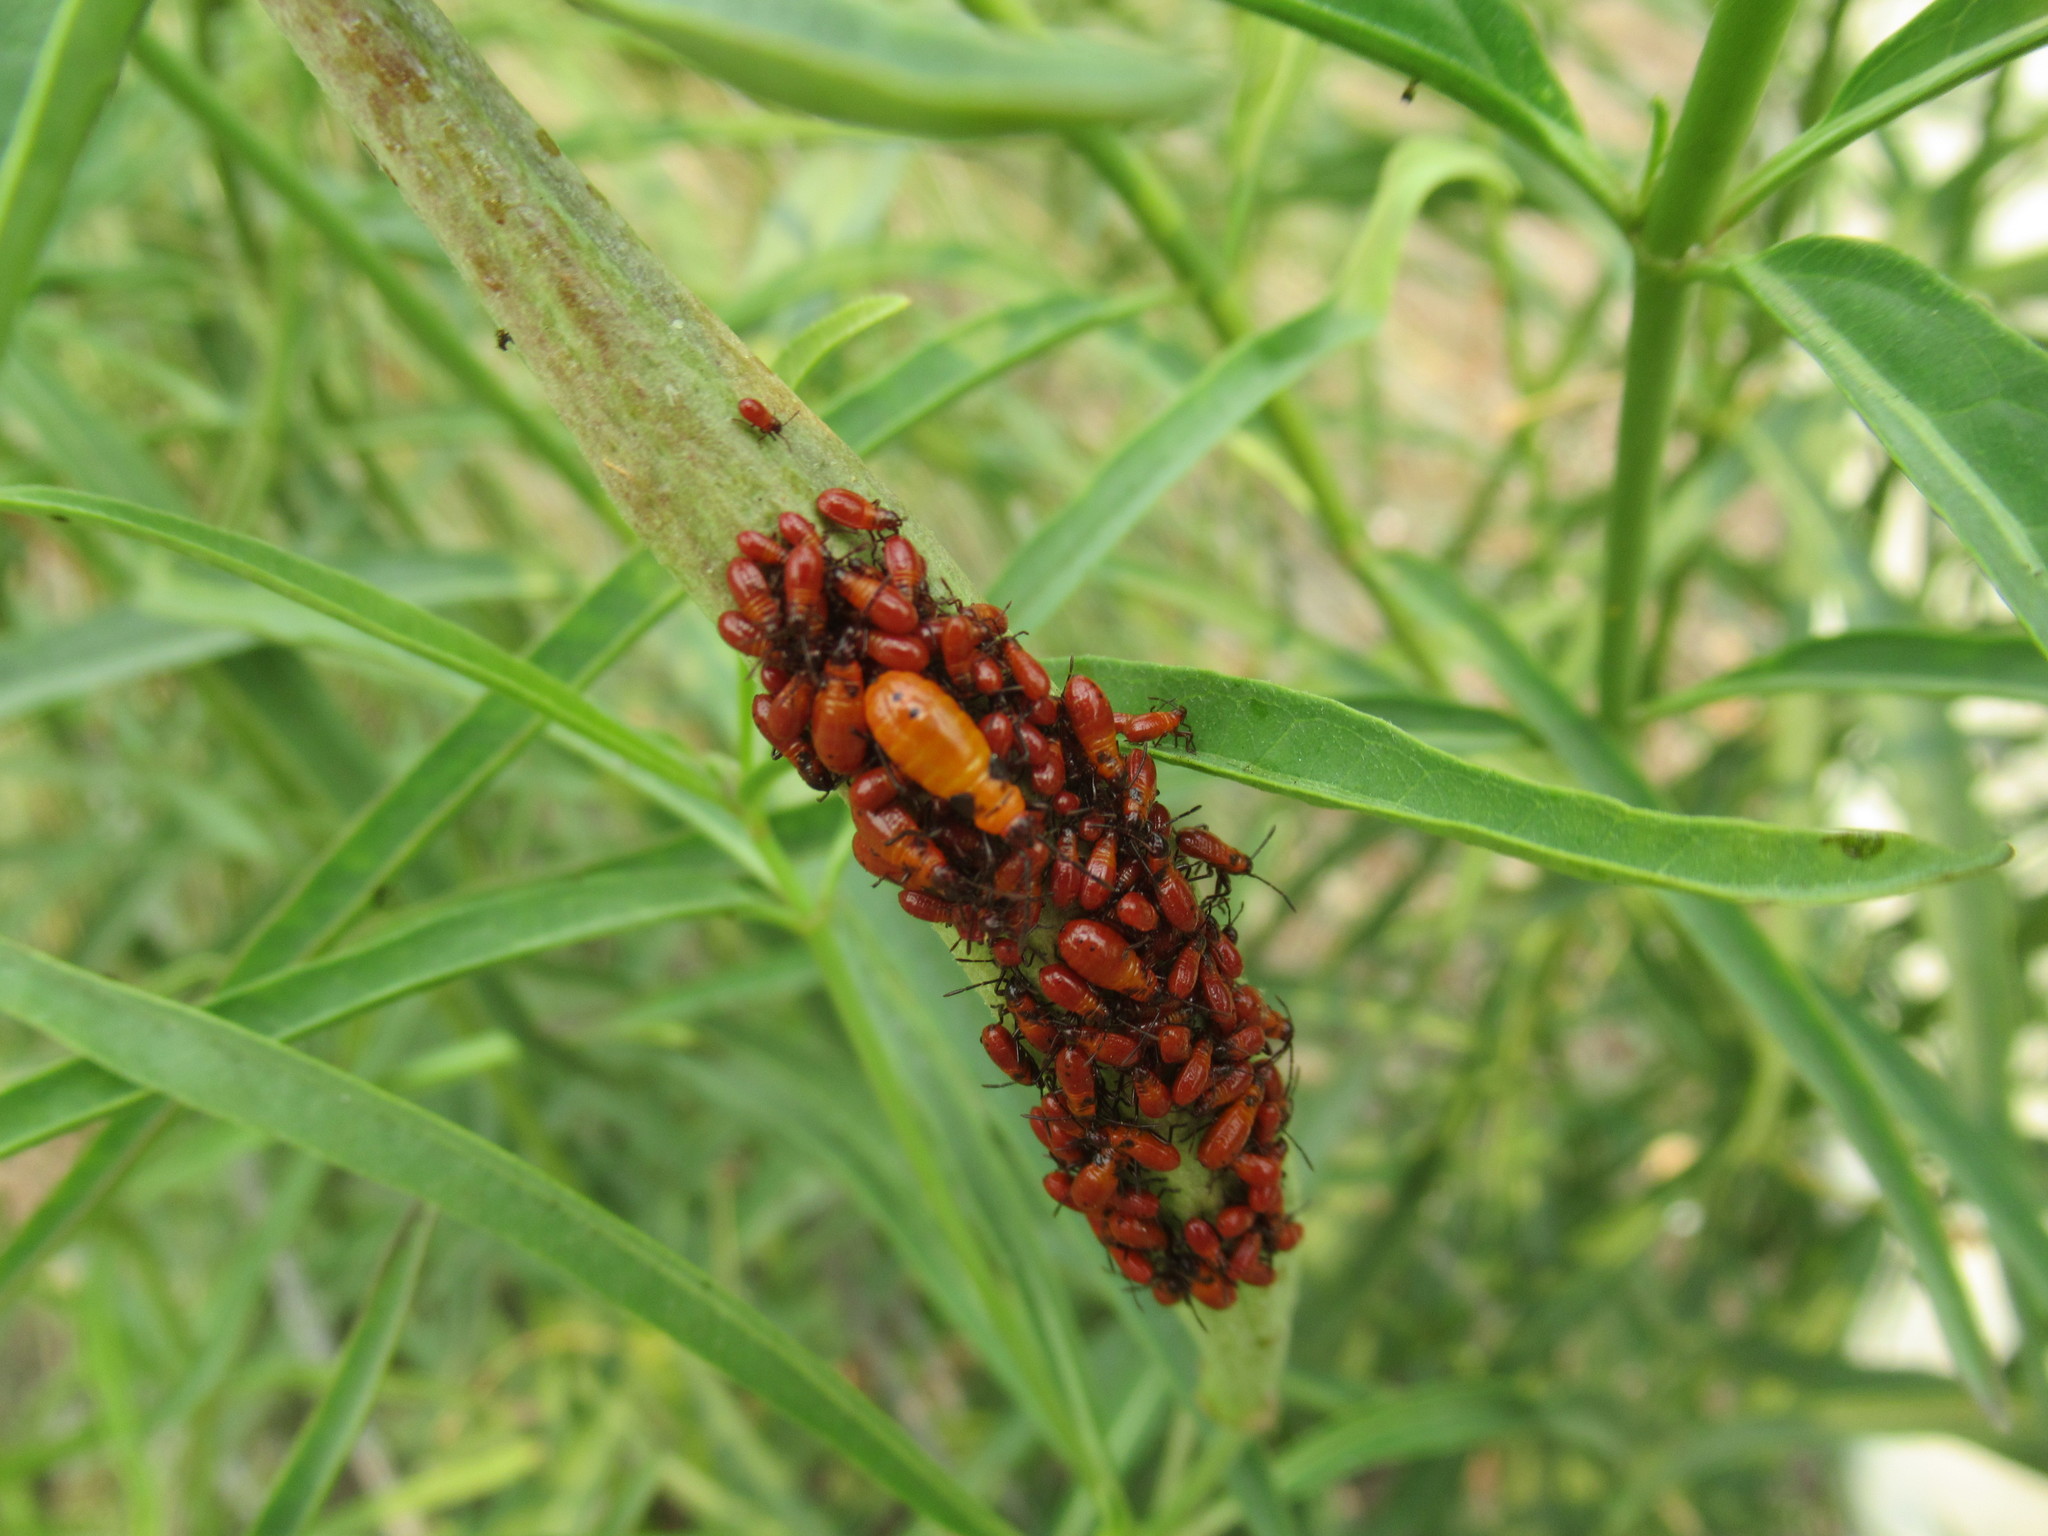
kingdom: Animalia
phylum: Arthropoda
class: Insecta
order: Hemiptera
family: Lygaeidae
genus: Oncopeltus
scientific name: Oncopeltus fasciatus
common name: Large milkweed bug
